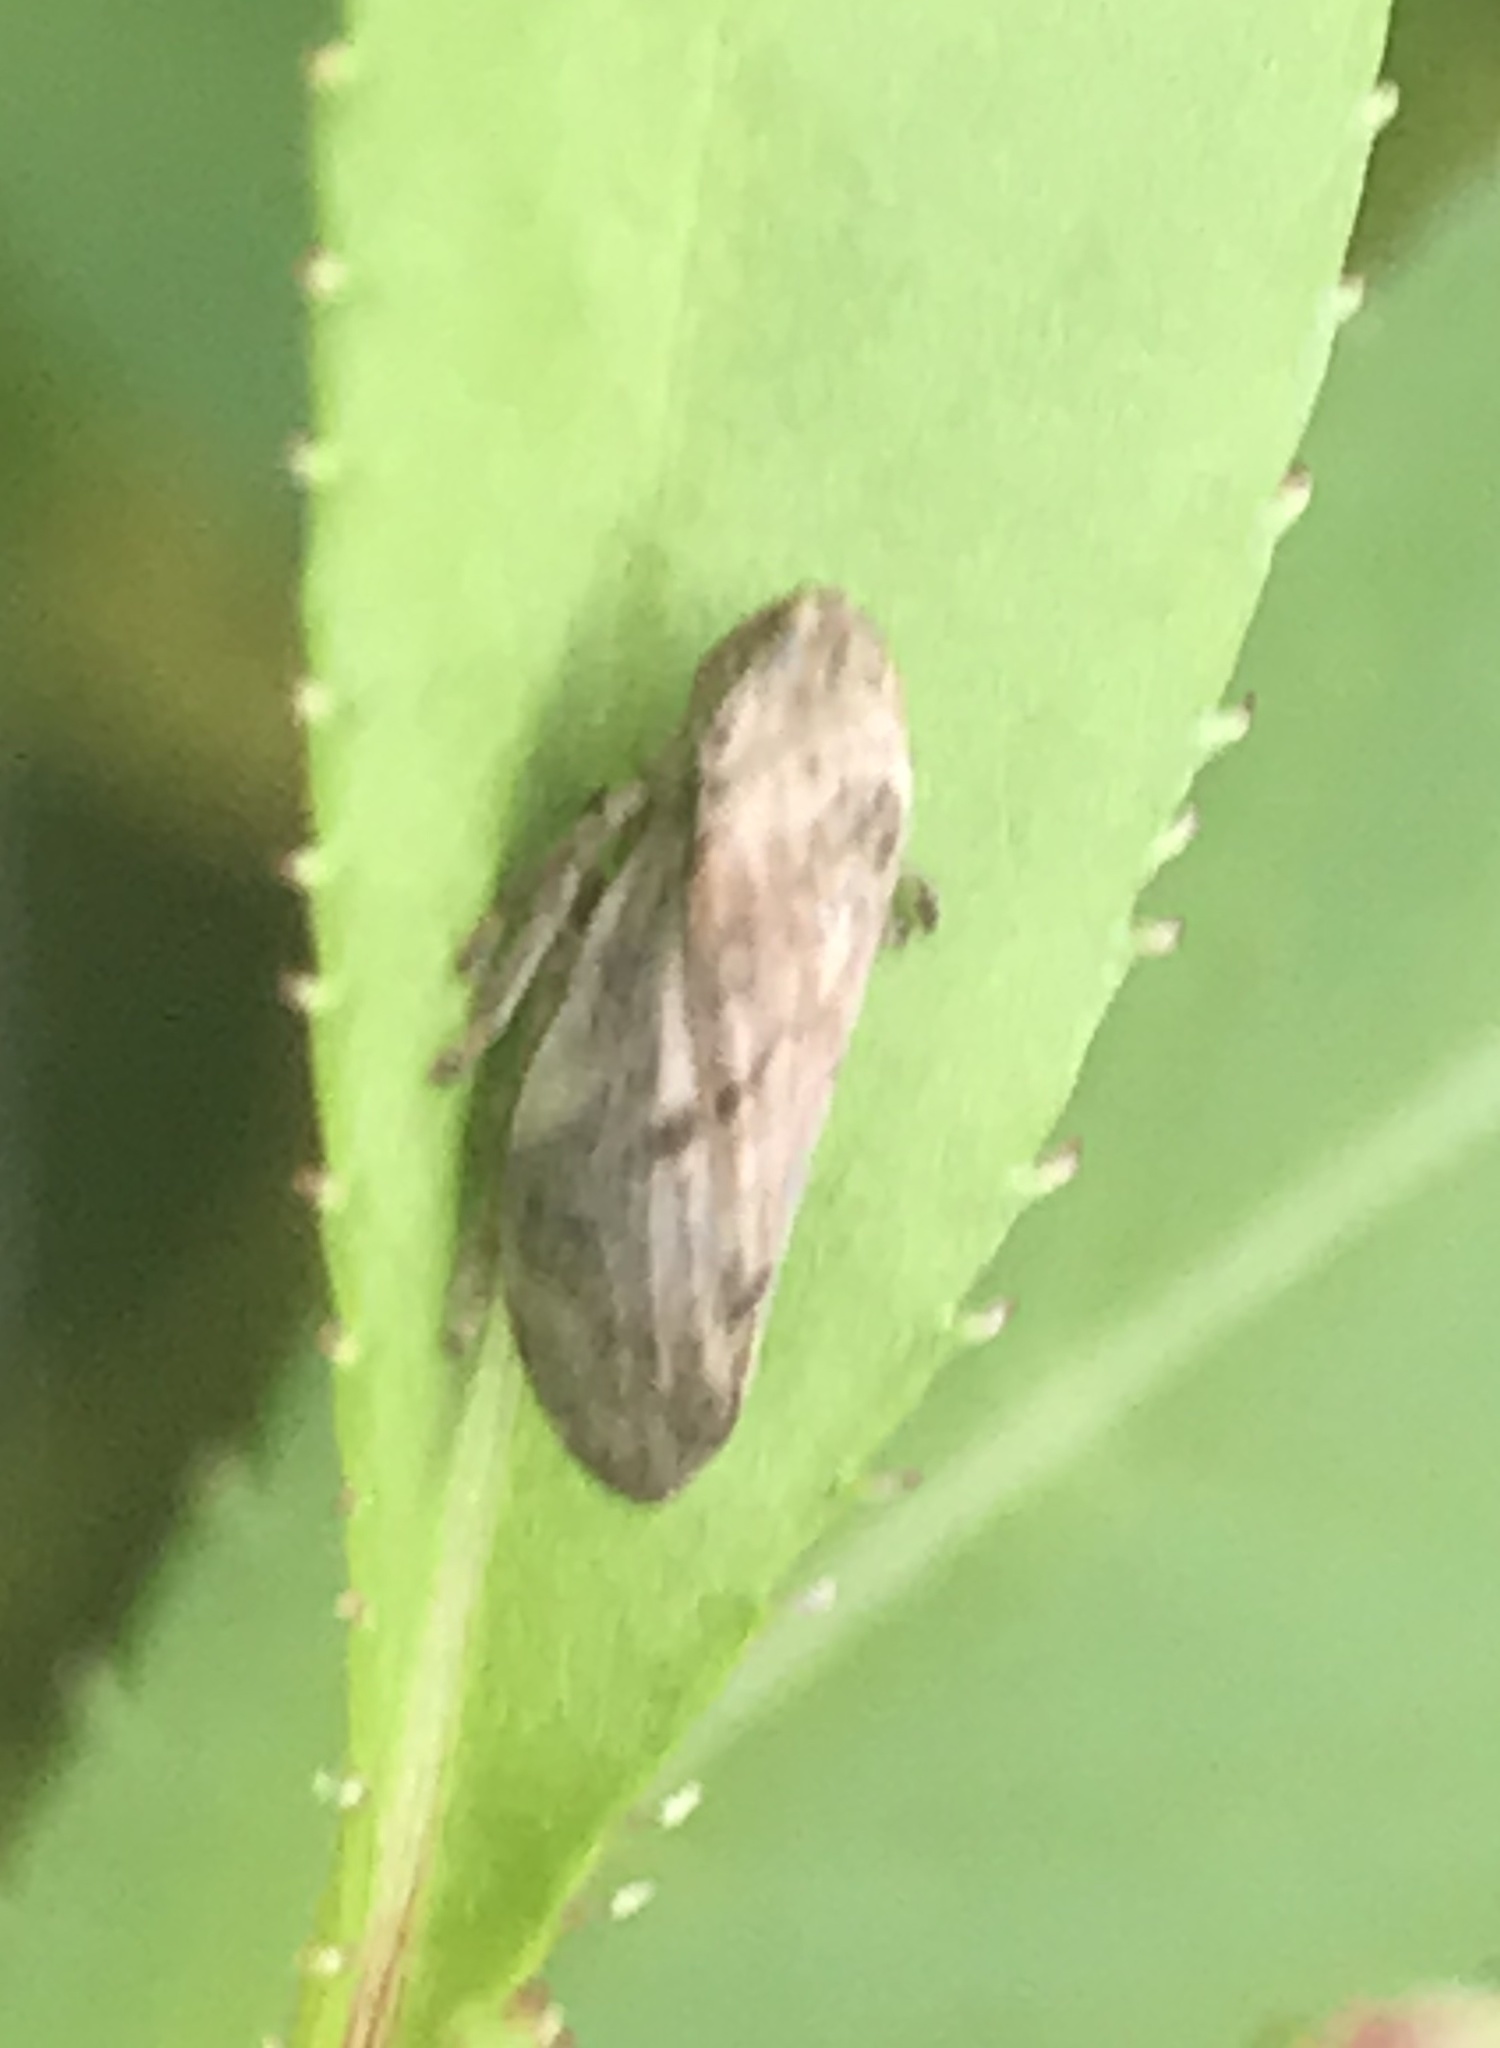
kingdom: Animalia
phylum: Arthropoda
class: Insecta
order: Hemiptera
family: Aphrophoridae
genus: Philaenus
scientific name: Philaenus spumarius
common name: Meadow spittlebug
